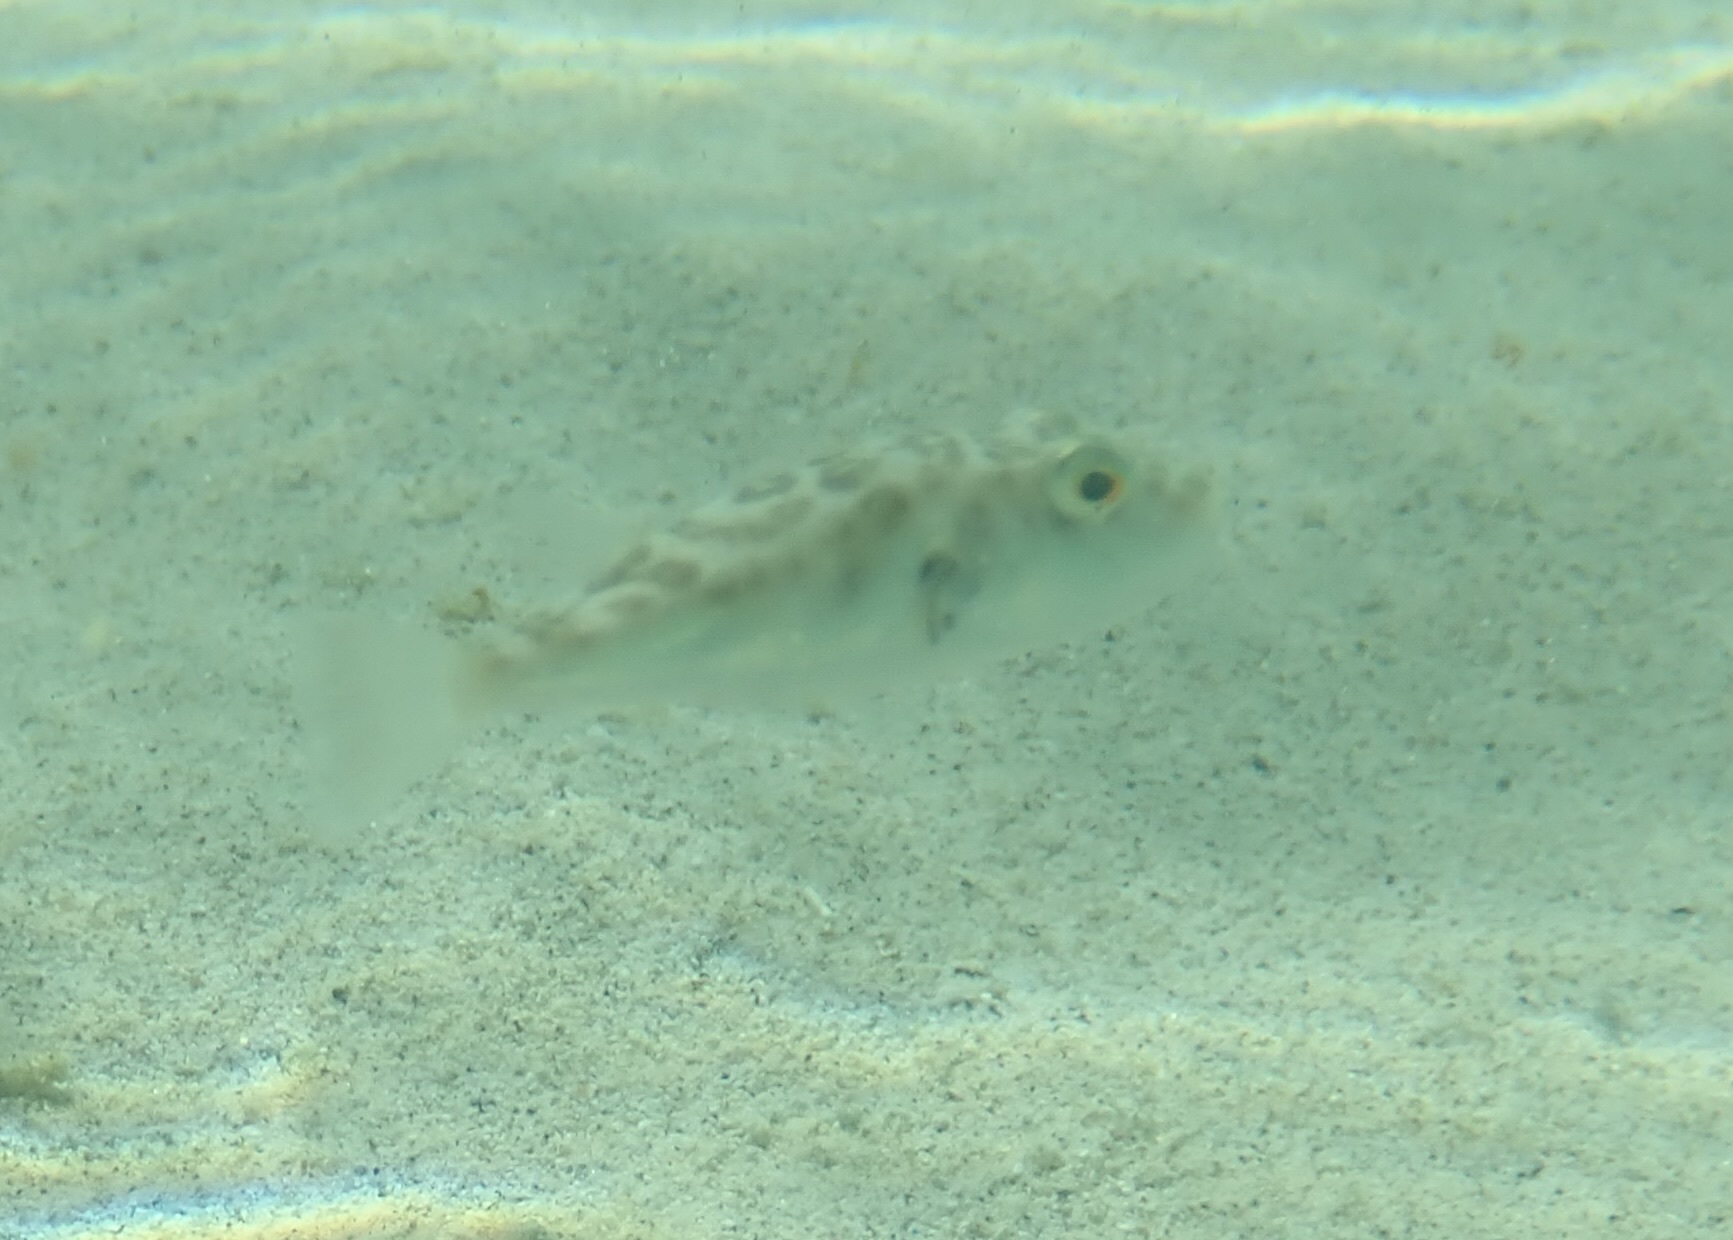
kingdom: Animalia
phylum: Chordata
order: Tetraodontiformes
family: Tetraodontidae
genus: Sphoeroides
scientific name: Sphoeroides annulatus
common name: Bullseye puffer
